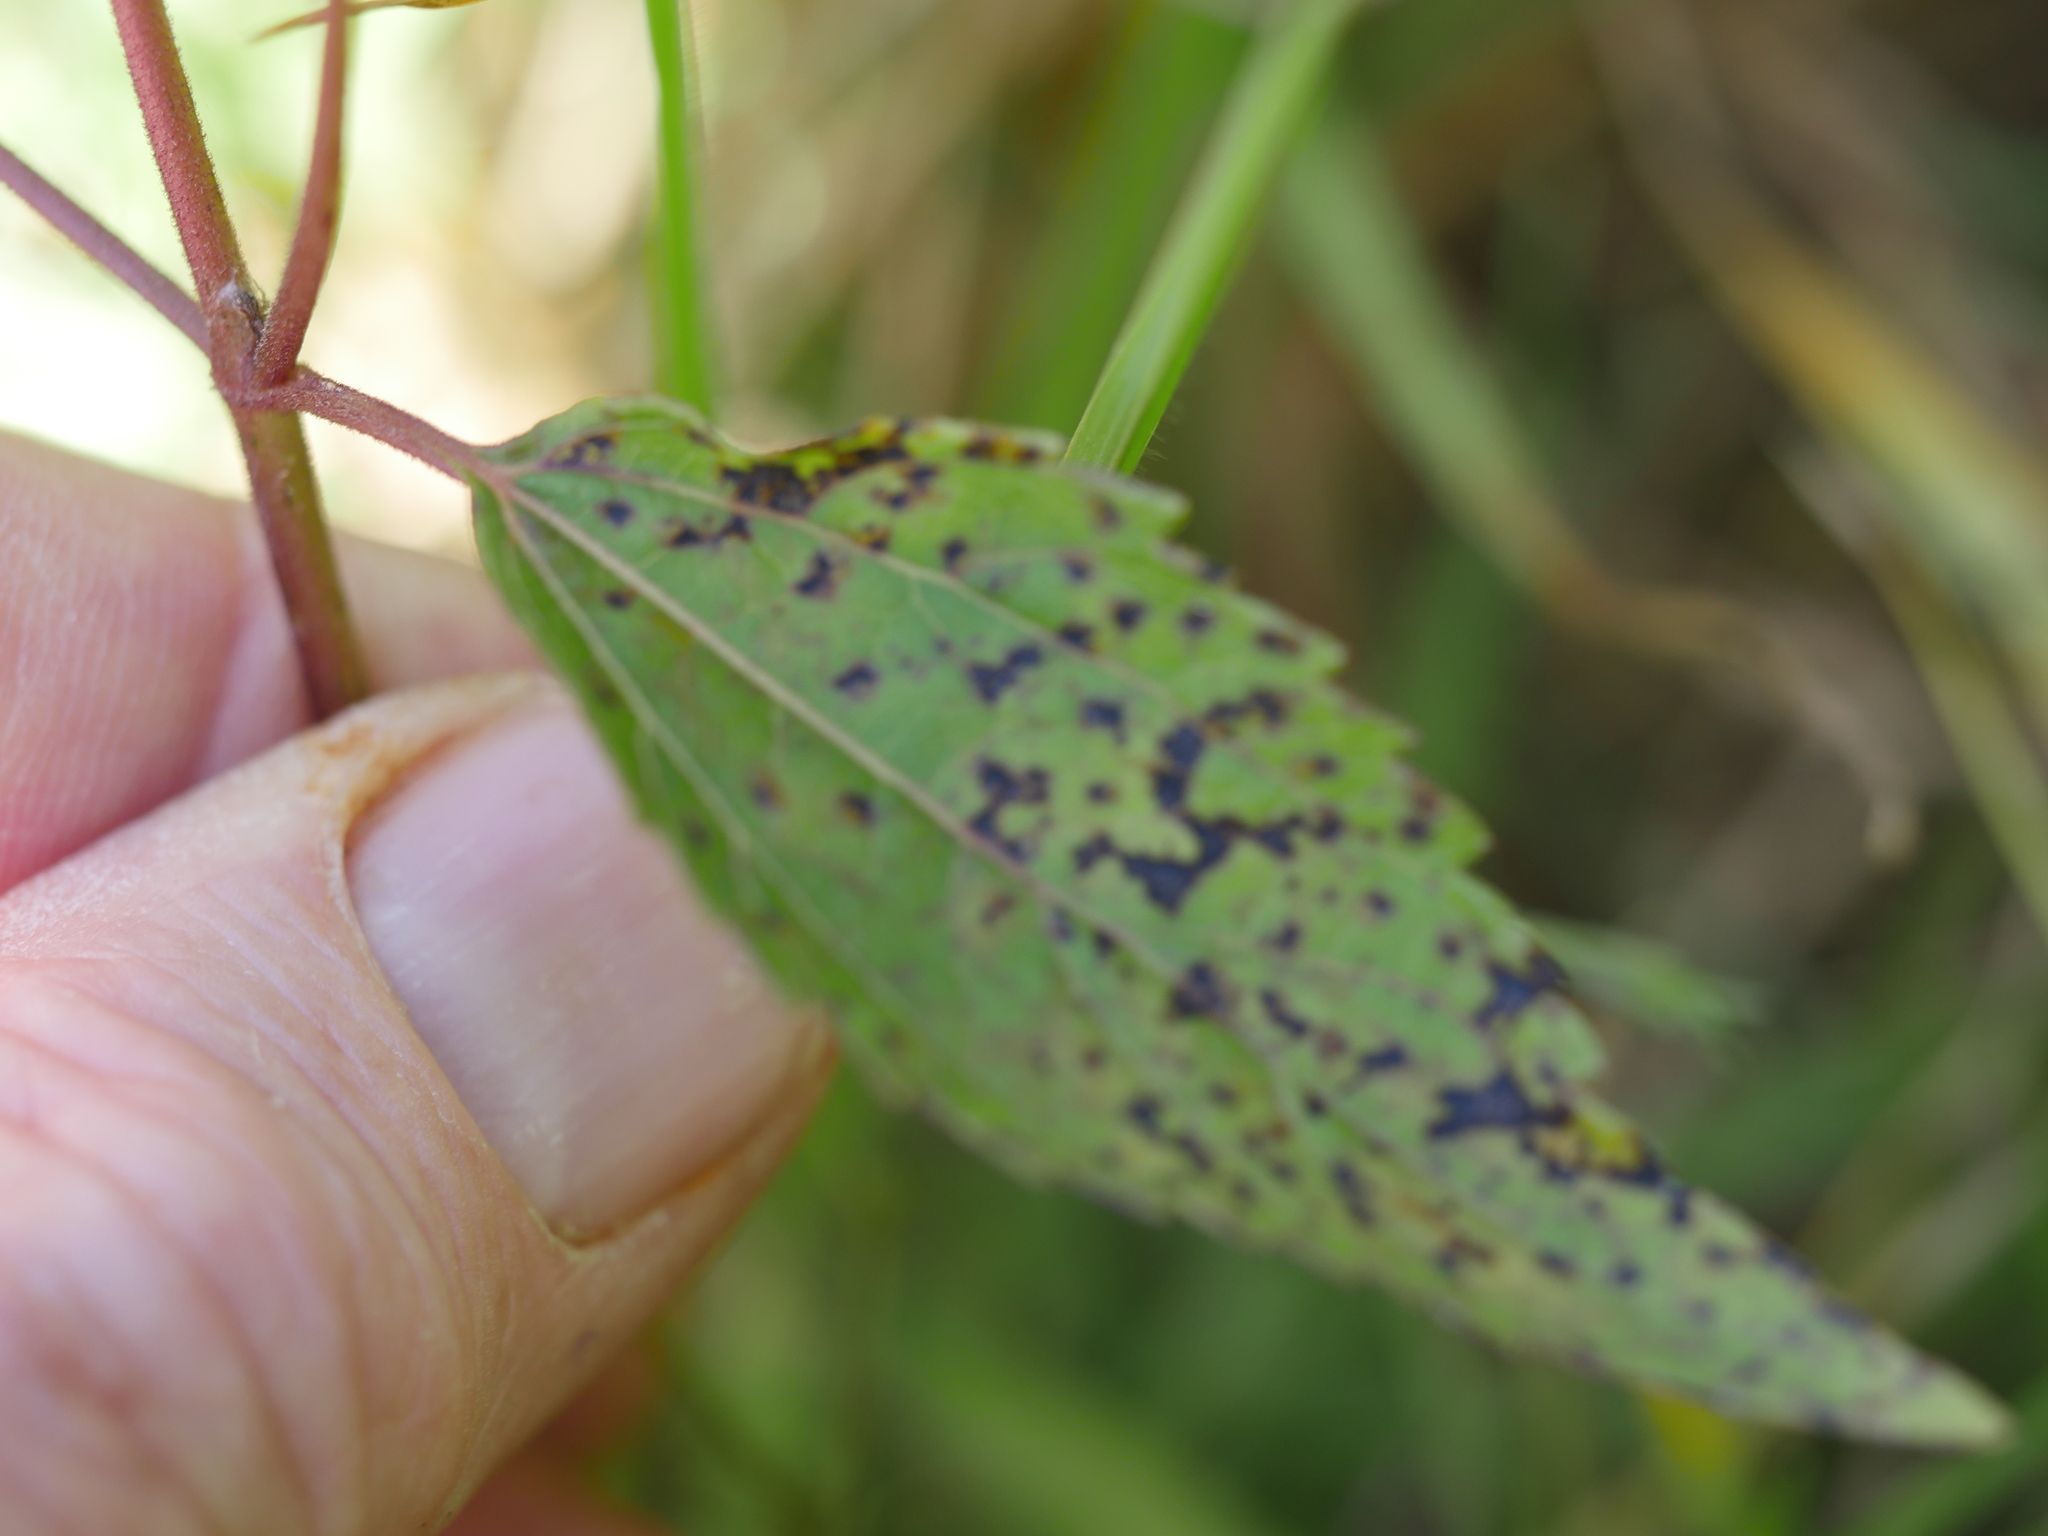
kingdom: Plantae
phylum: Tracheophyta
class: Magnoliopsida
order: Asterales
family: Asteraceae
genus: Ageratina
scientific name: Ageratina riparia
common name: Creeping croftonweed
